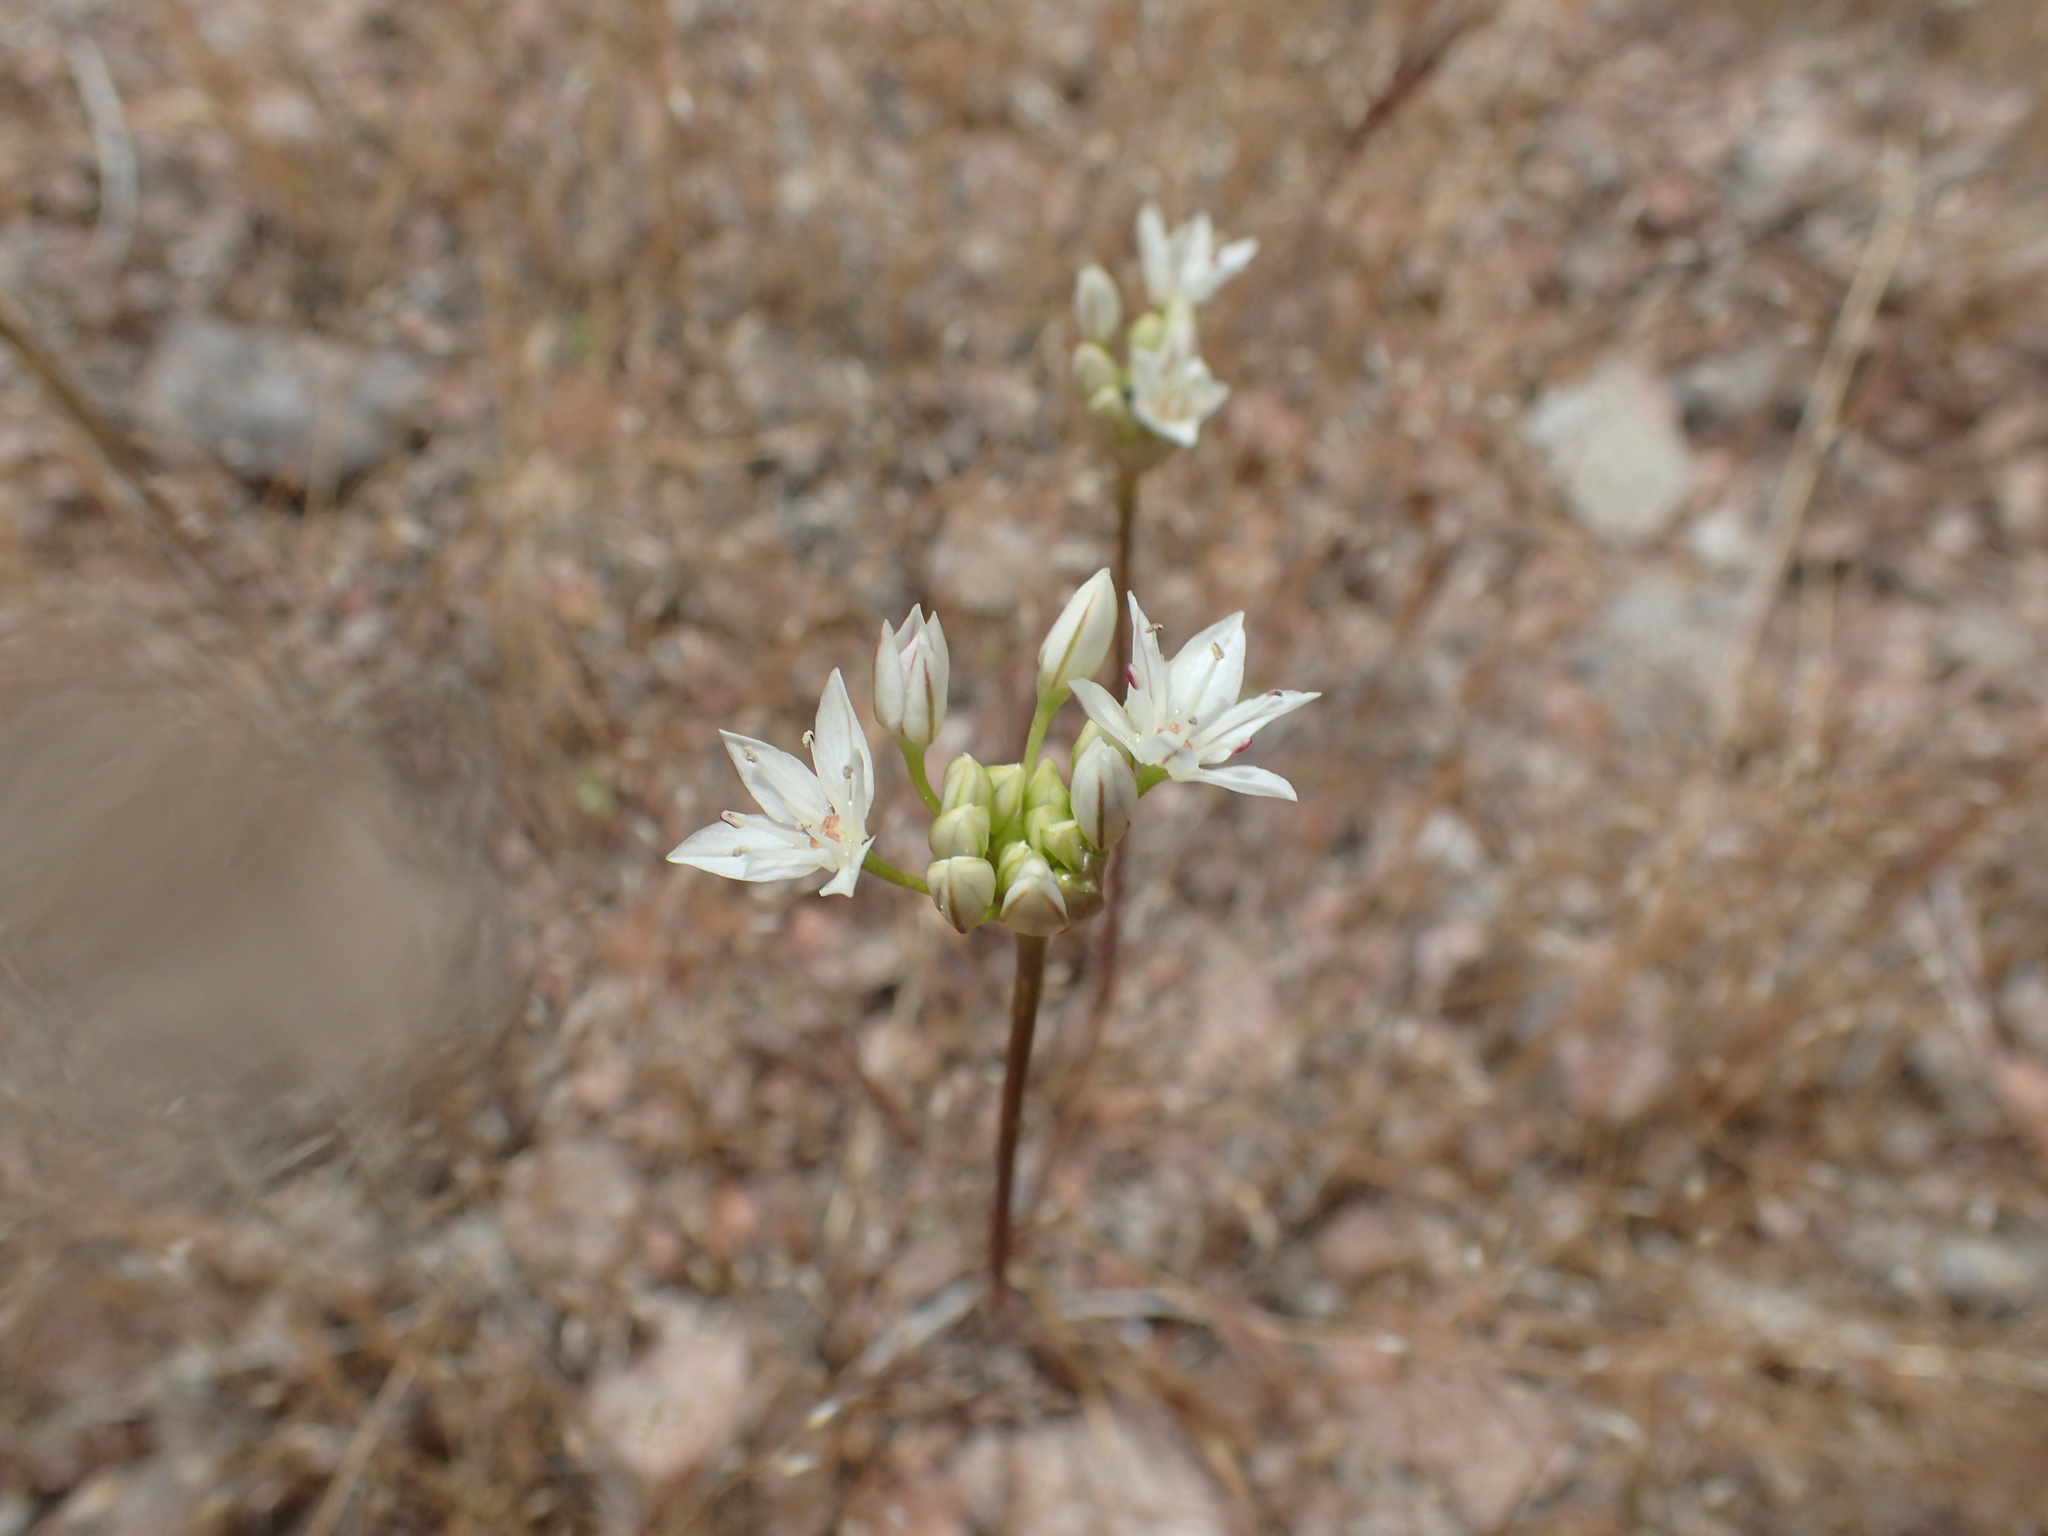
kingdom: Plantae
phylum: Tracheophyta
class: Liliopsida
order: Asparagales
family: Amaryllidaceae
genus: Allium
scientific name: Allium lacunosum
